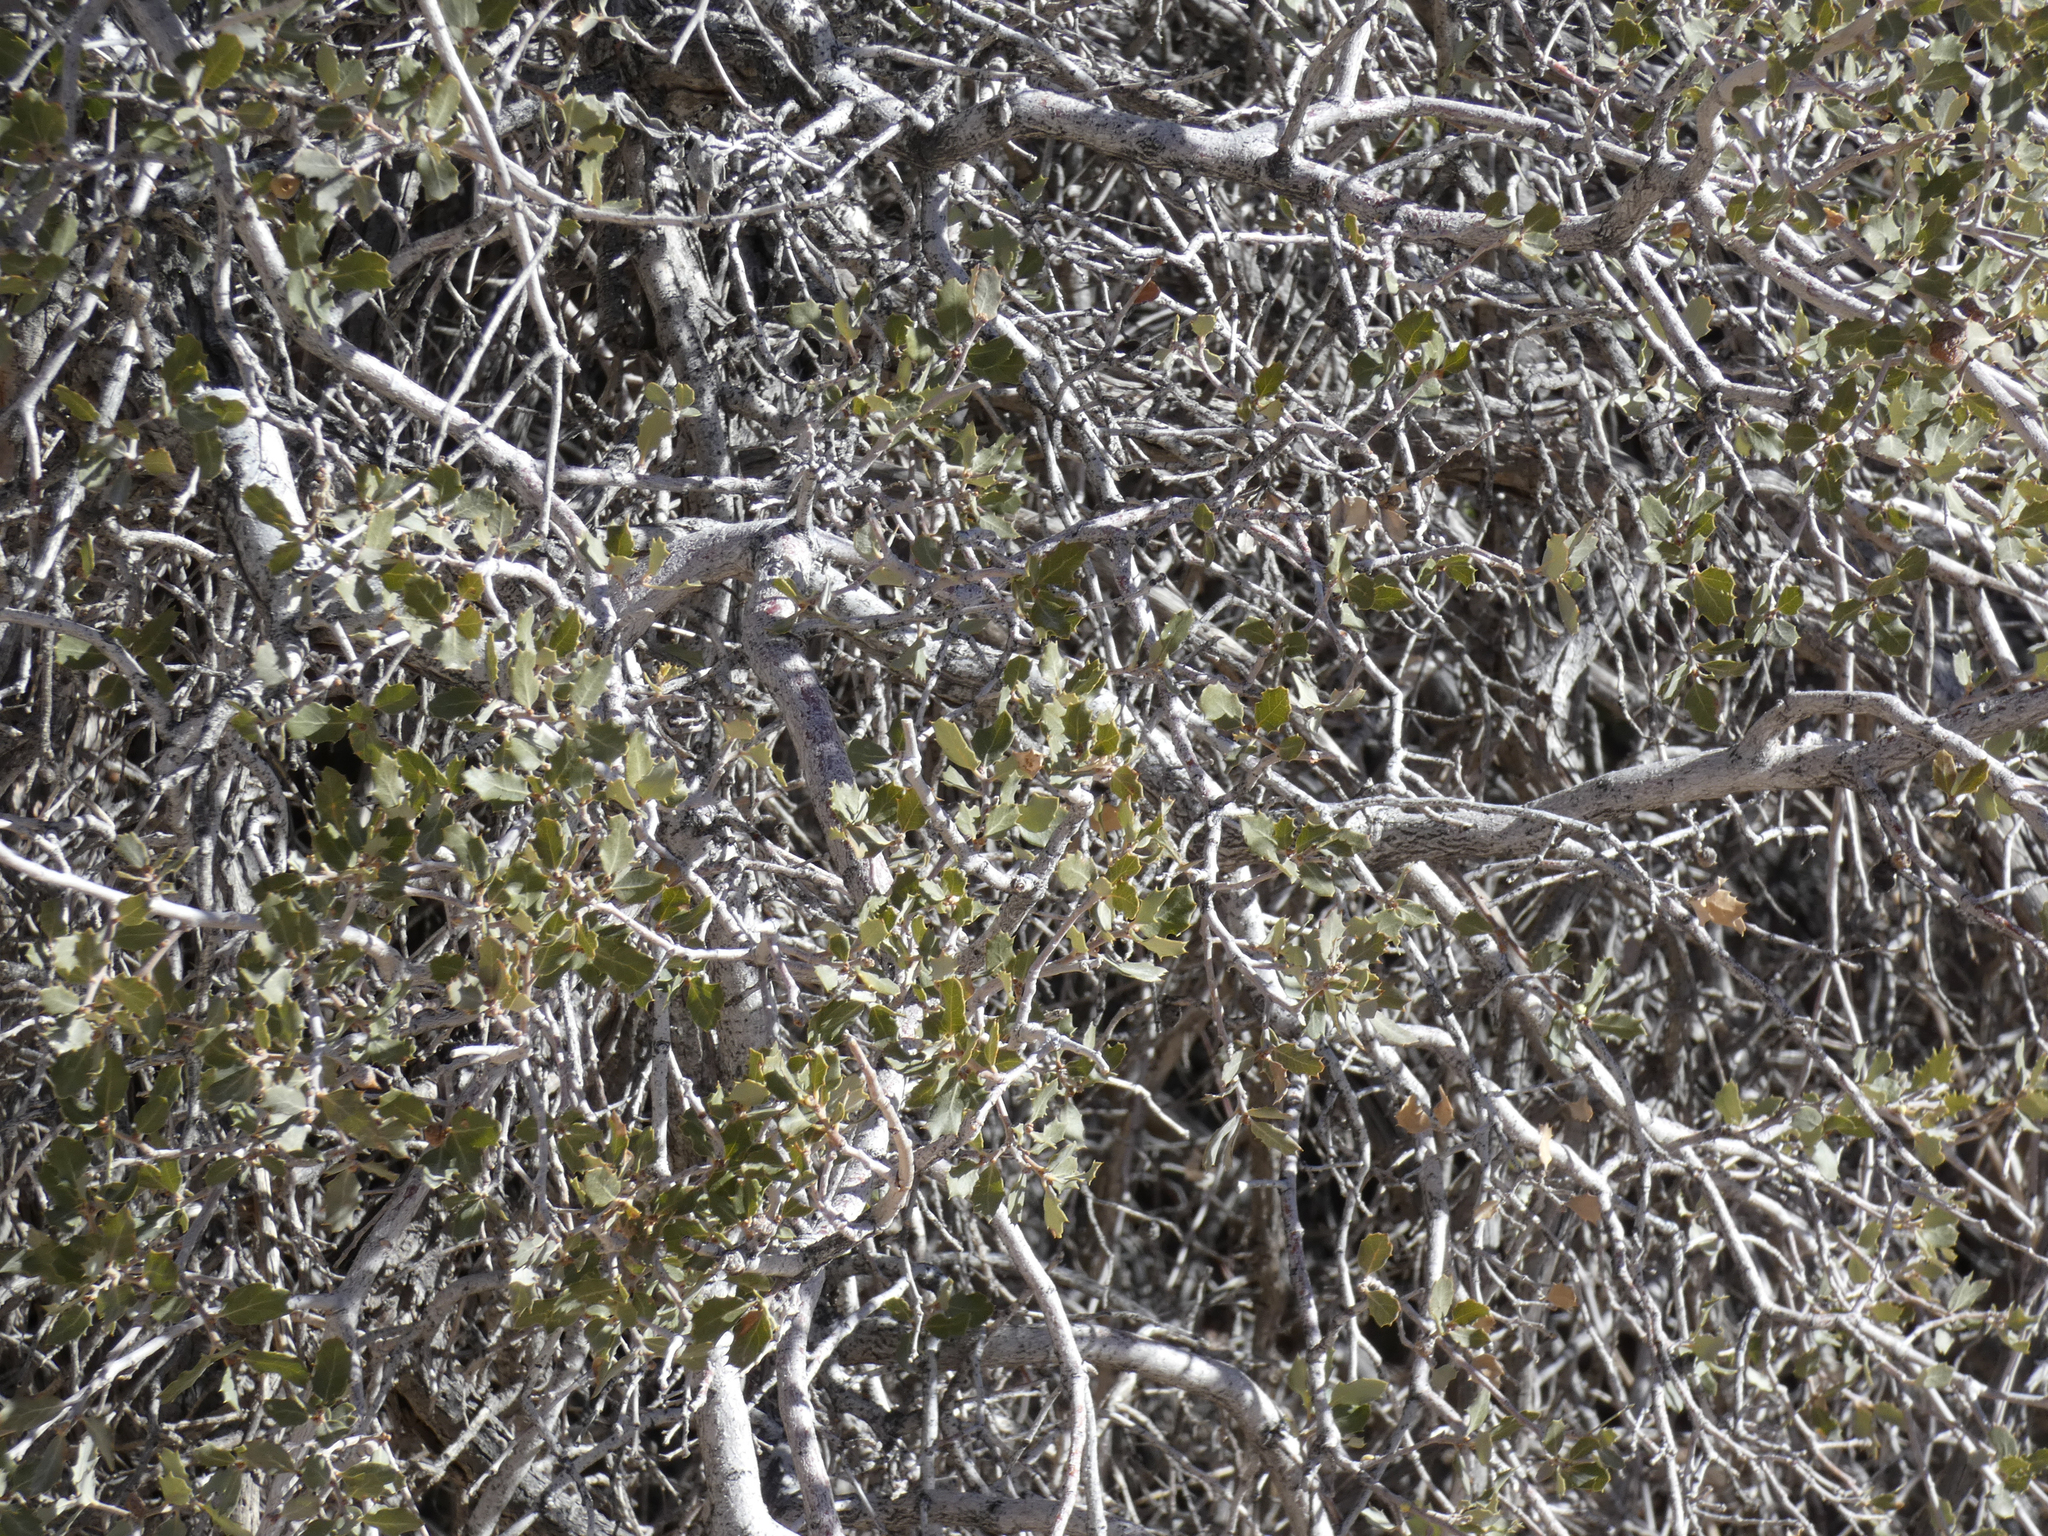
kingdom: Plantae
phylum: Tracheophyta
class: Magnoliopsida
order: Fagales
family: Fagaceae
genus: Quercus
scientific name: Quercus cornelius-mulleri
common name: Muller oak
